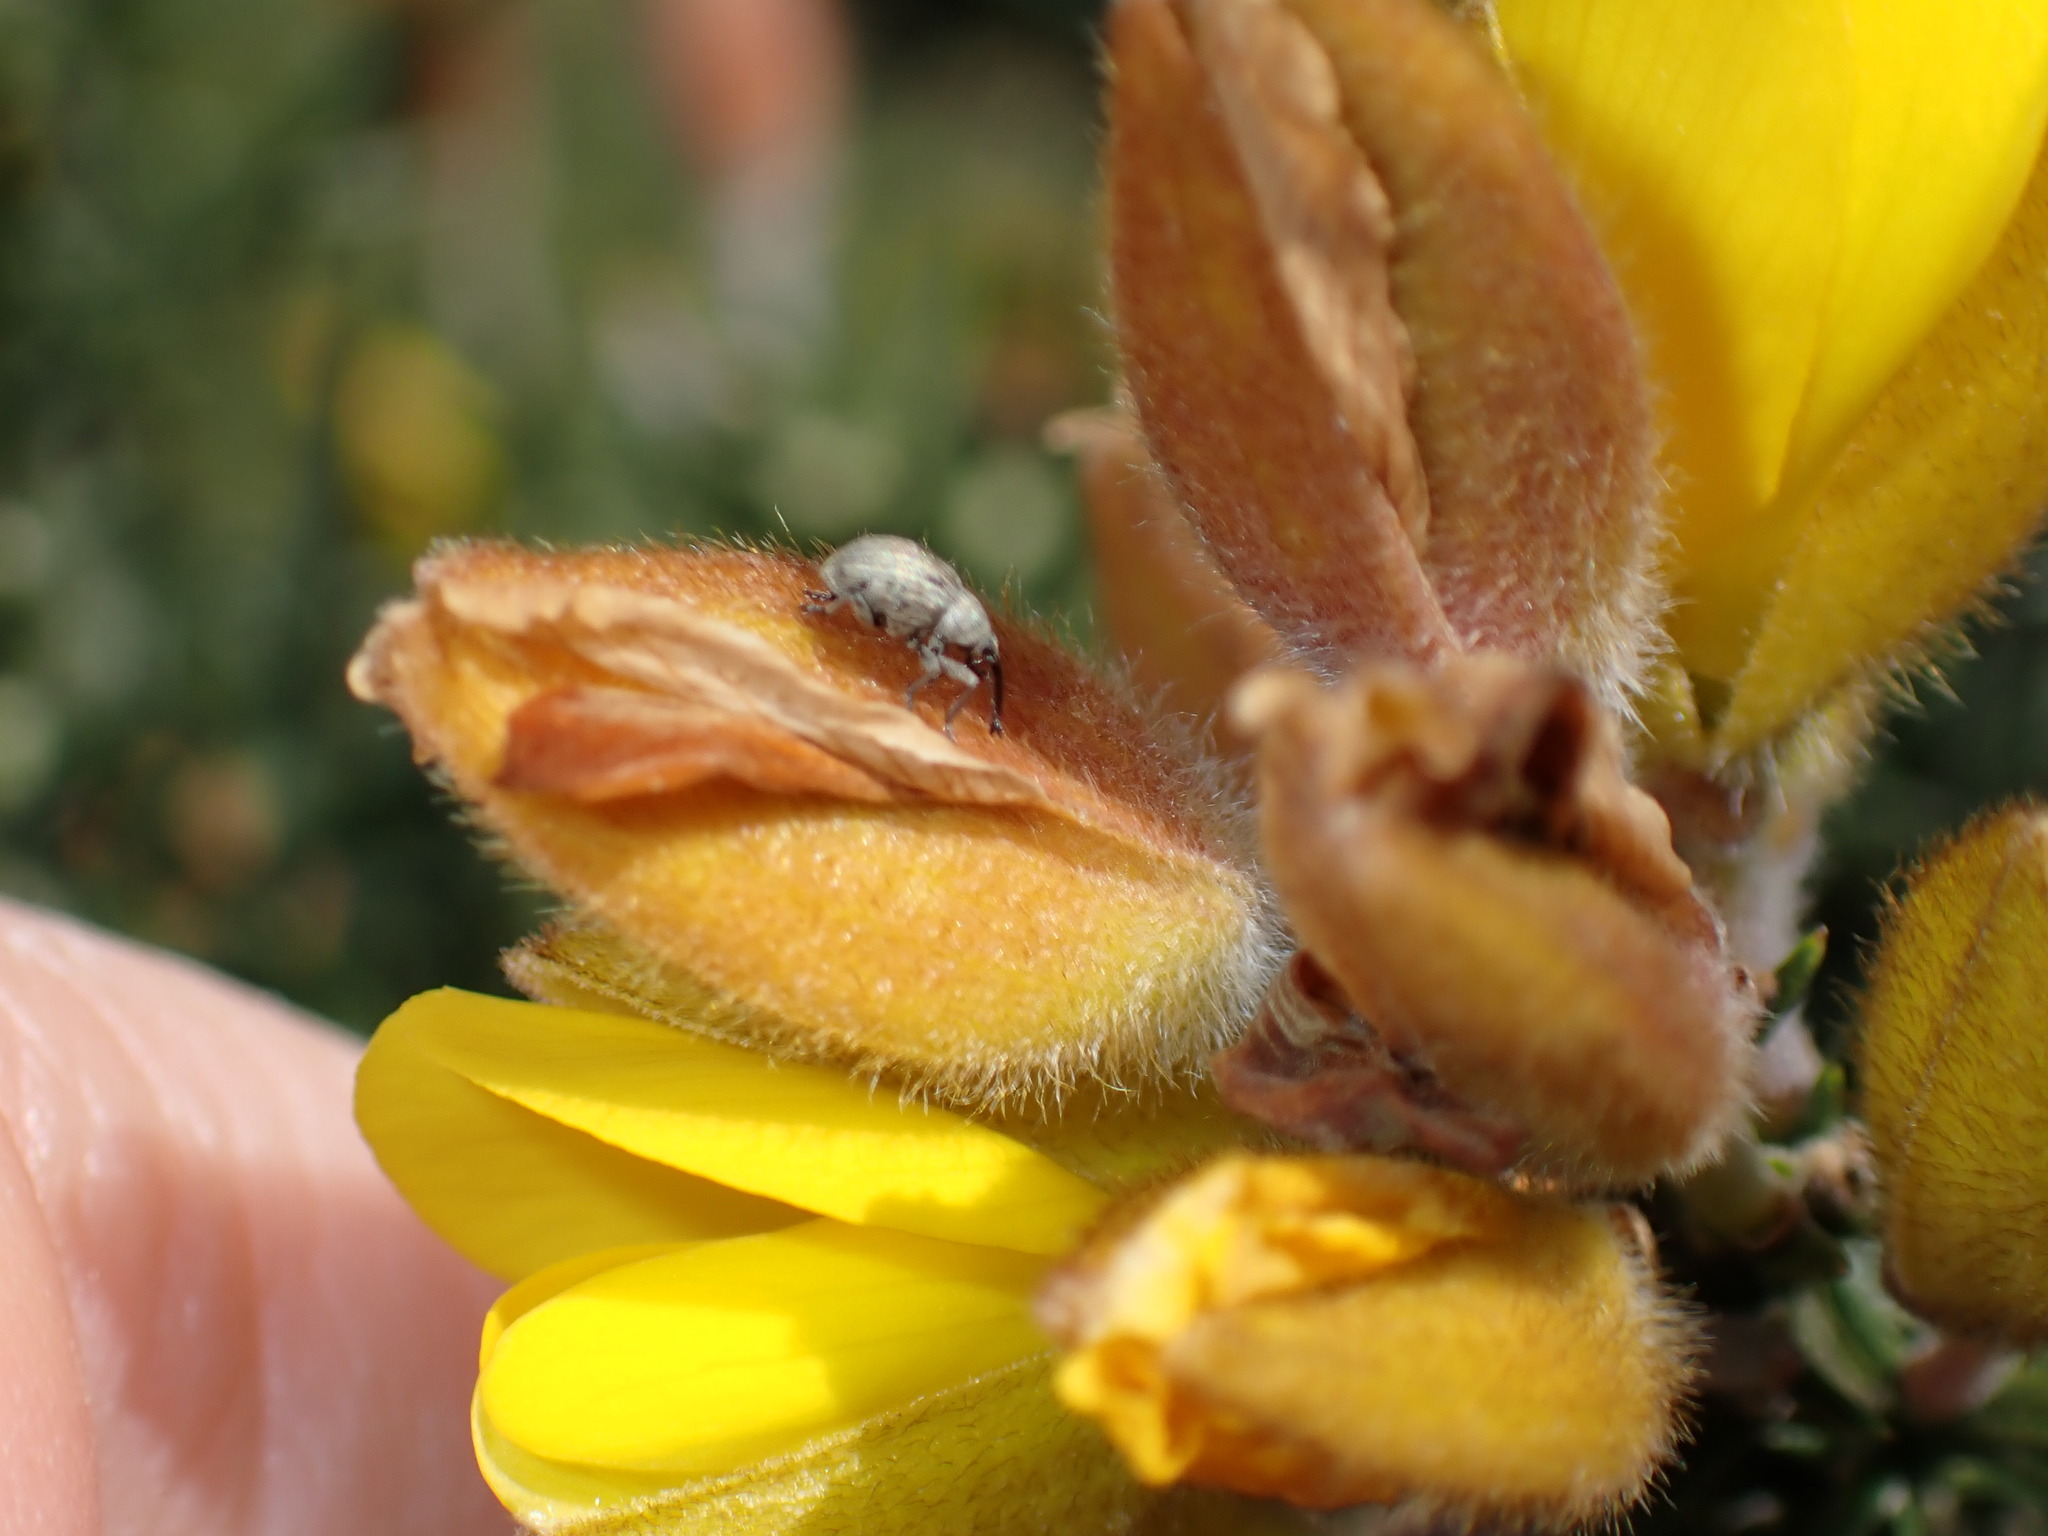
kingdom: Animalia
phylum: Arthropoda
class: Insecta
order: Coleoptera
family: Brentidae
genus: Exapion
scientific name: Exapion ulicis
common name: Gorse seed weevil
